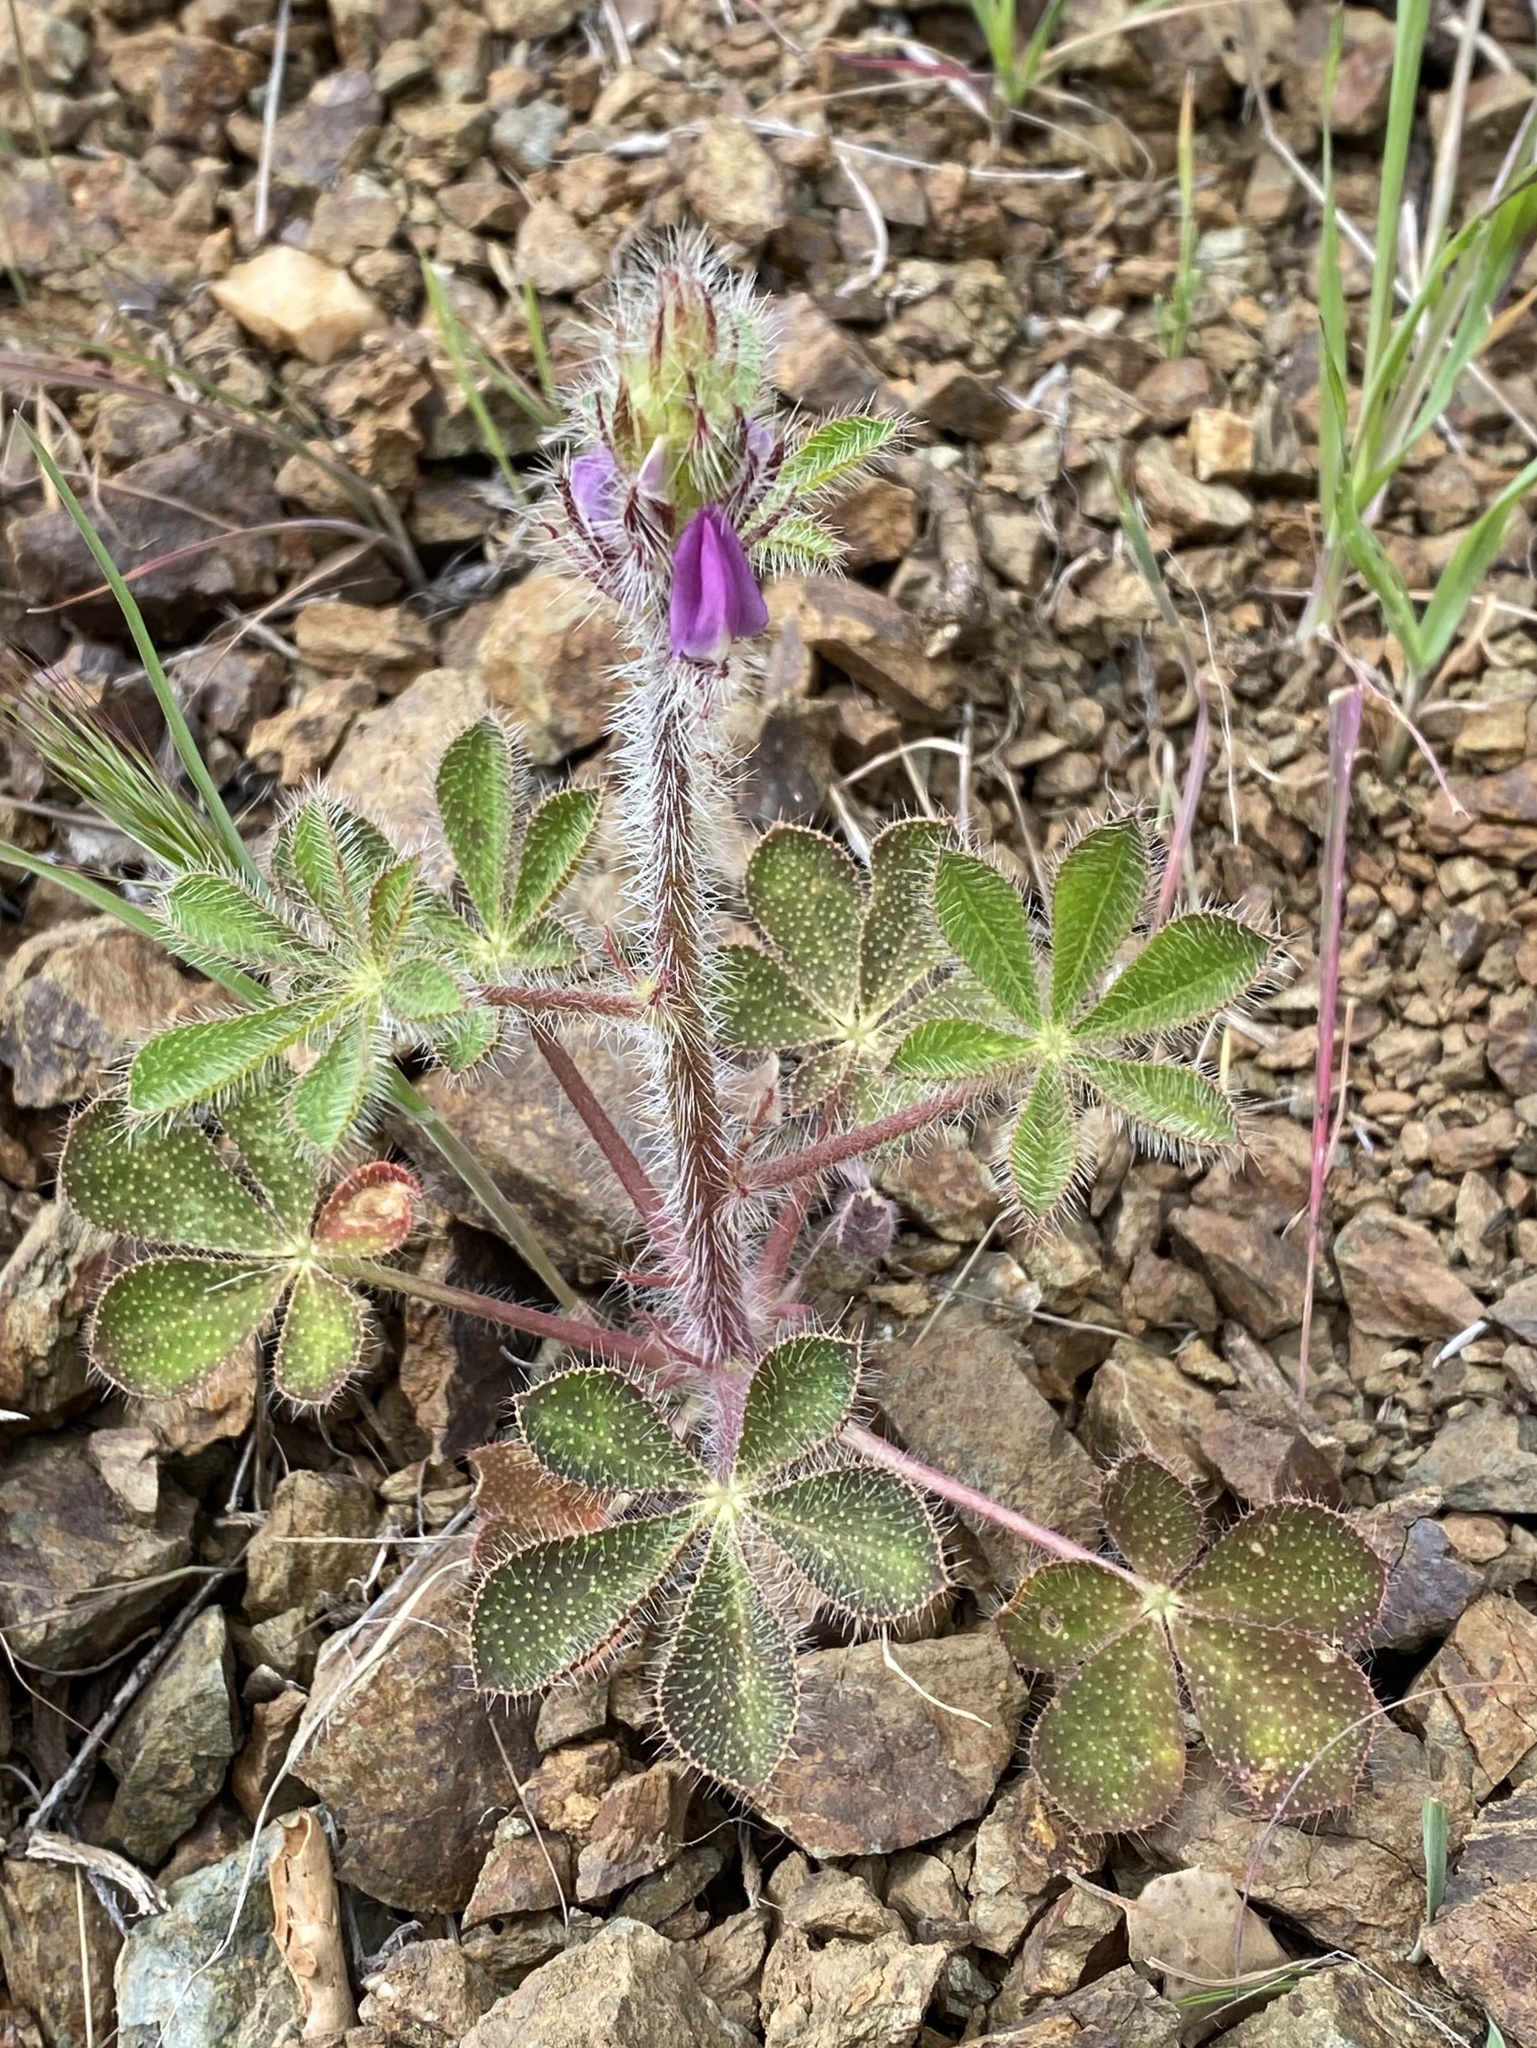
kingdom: Plantae
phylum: Tracheophyta
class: Magnoliopsida
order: Fabales
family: Fabaceae
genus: Lupinus
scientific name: Lupinus hirsutissimus
